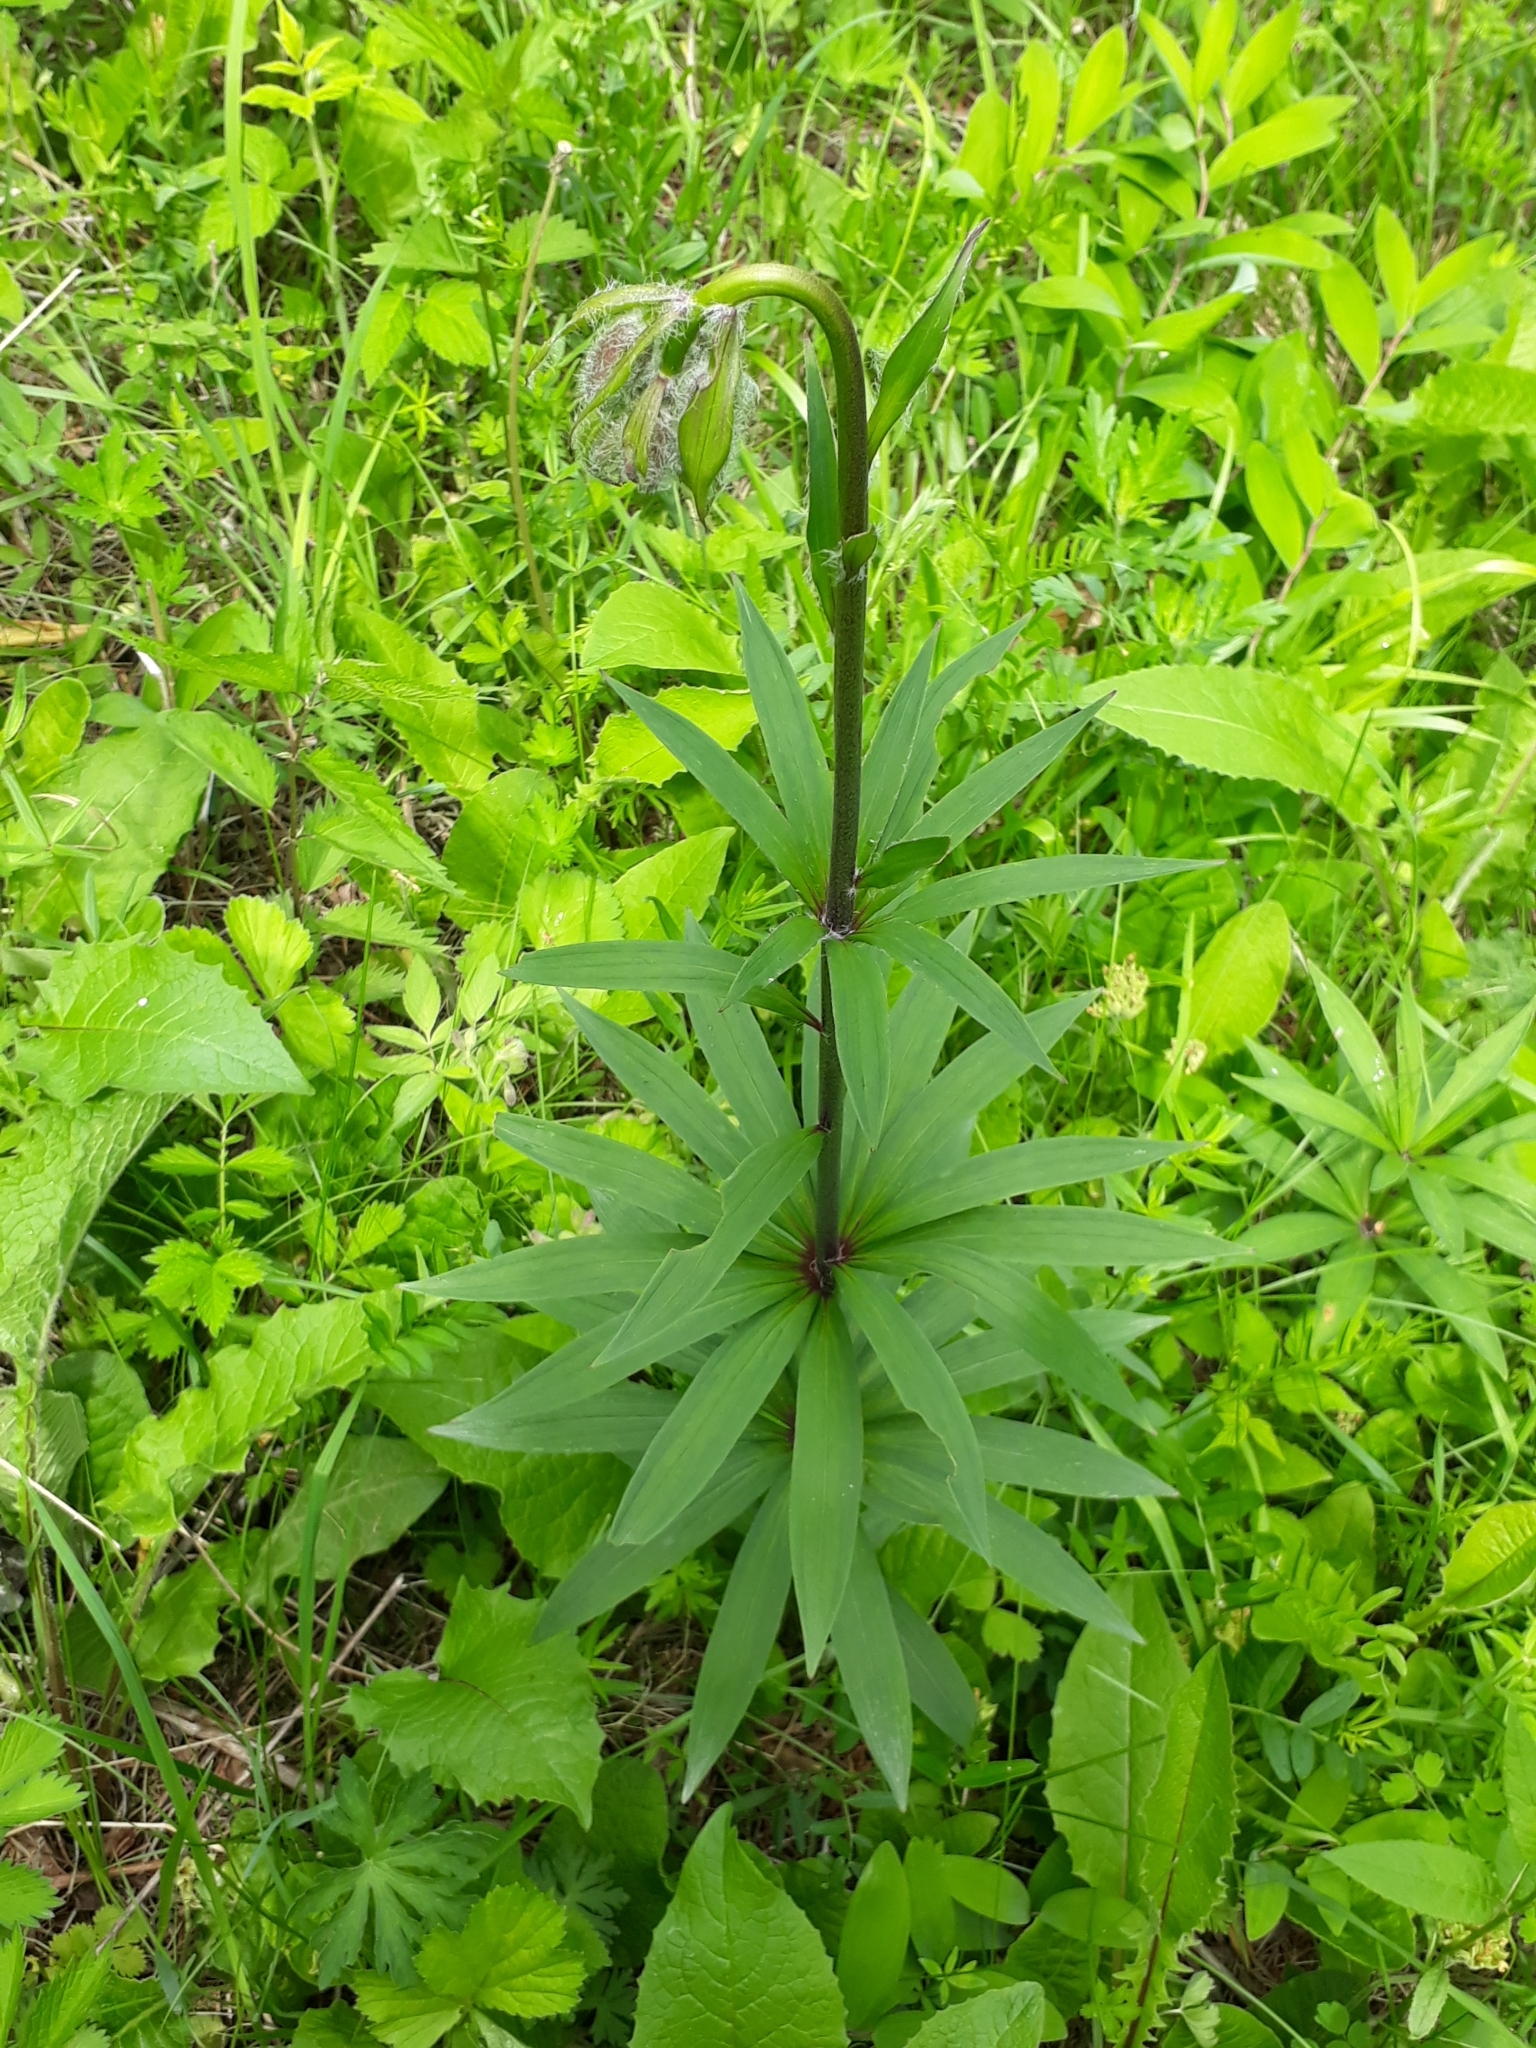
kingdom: Plantae
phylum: Tracheophyta
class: Liliopsida
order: Liliales
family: Liliaceae
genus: Lilium
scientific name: Lilium martagon
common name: Martagon lily
